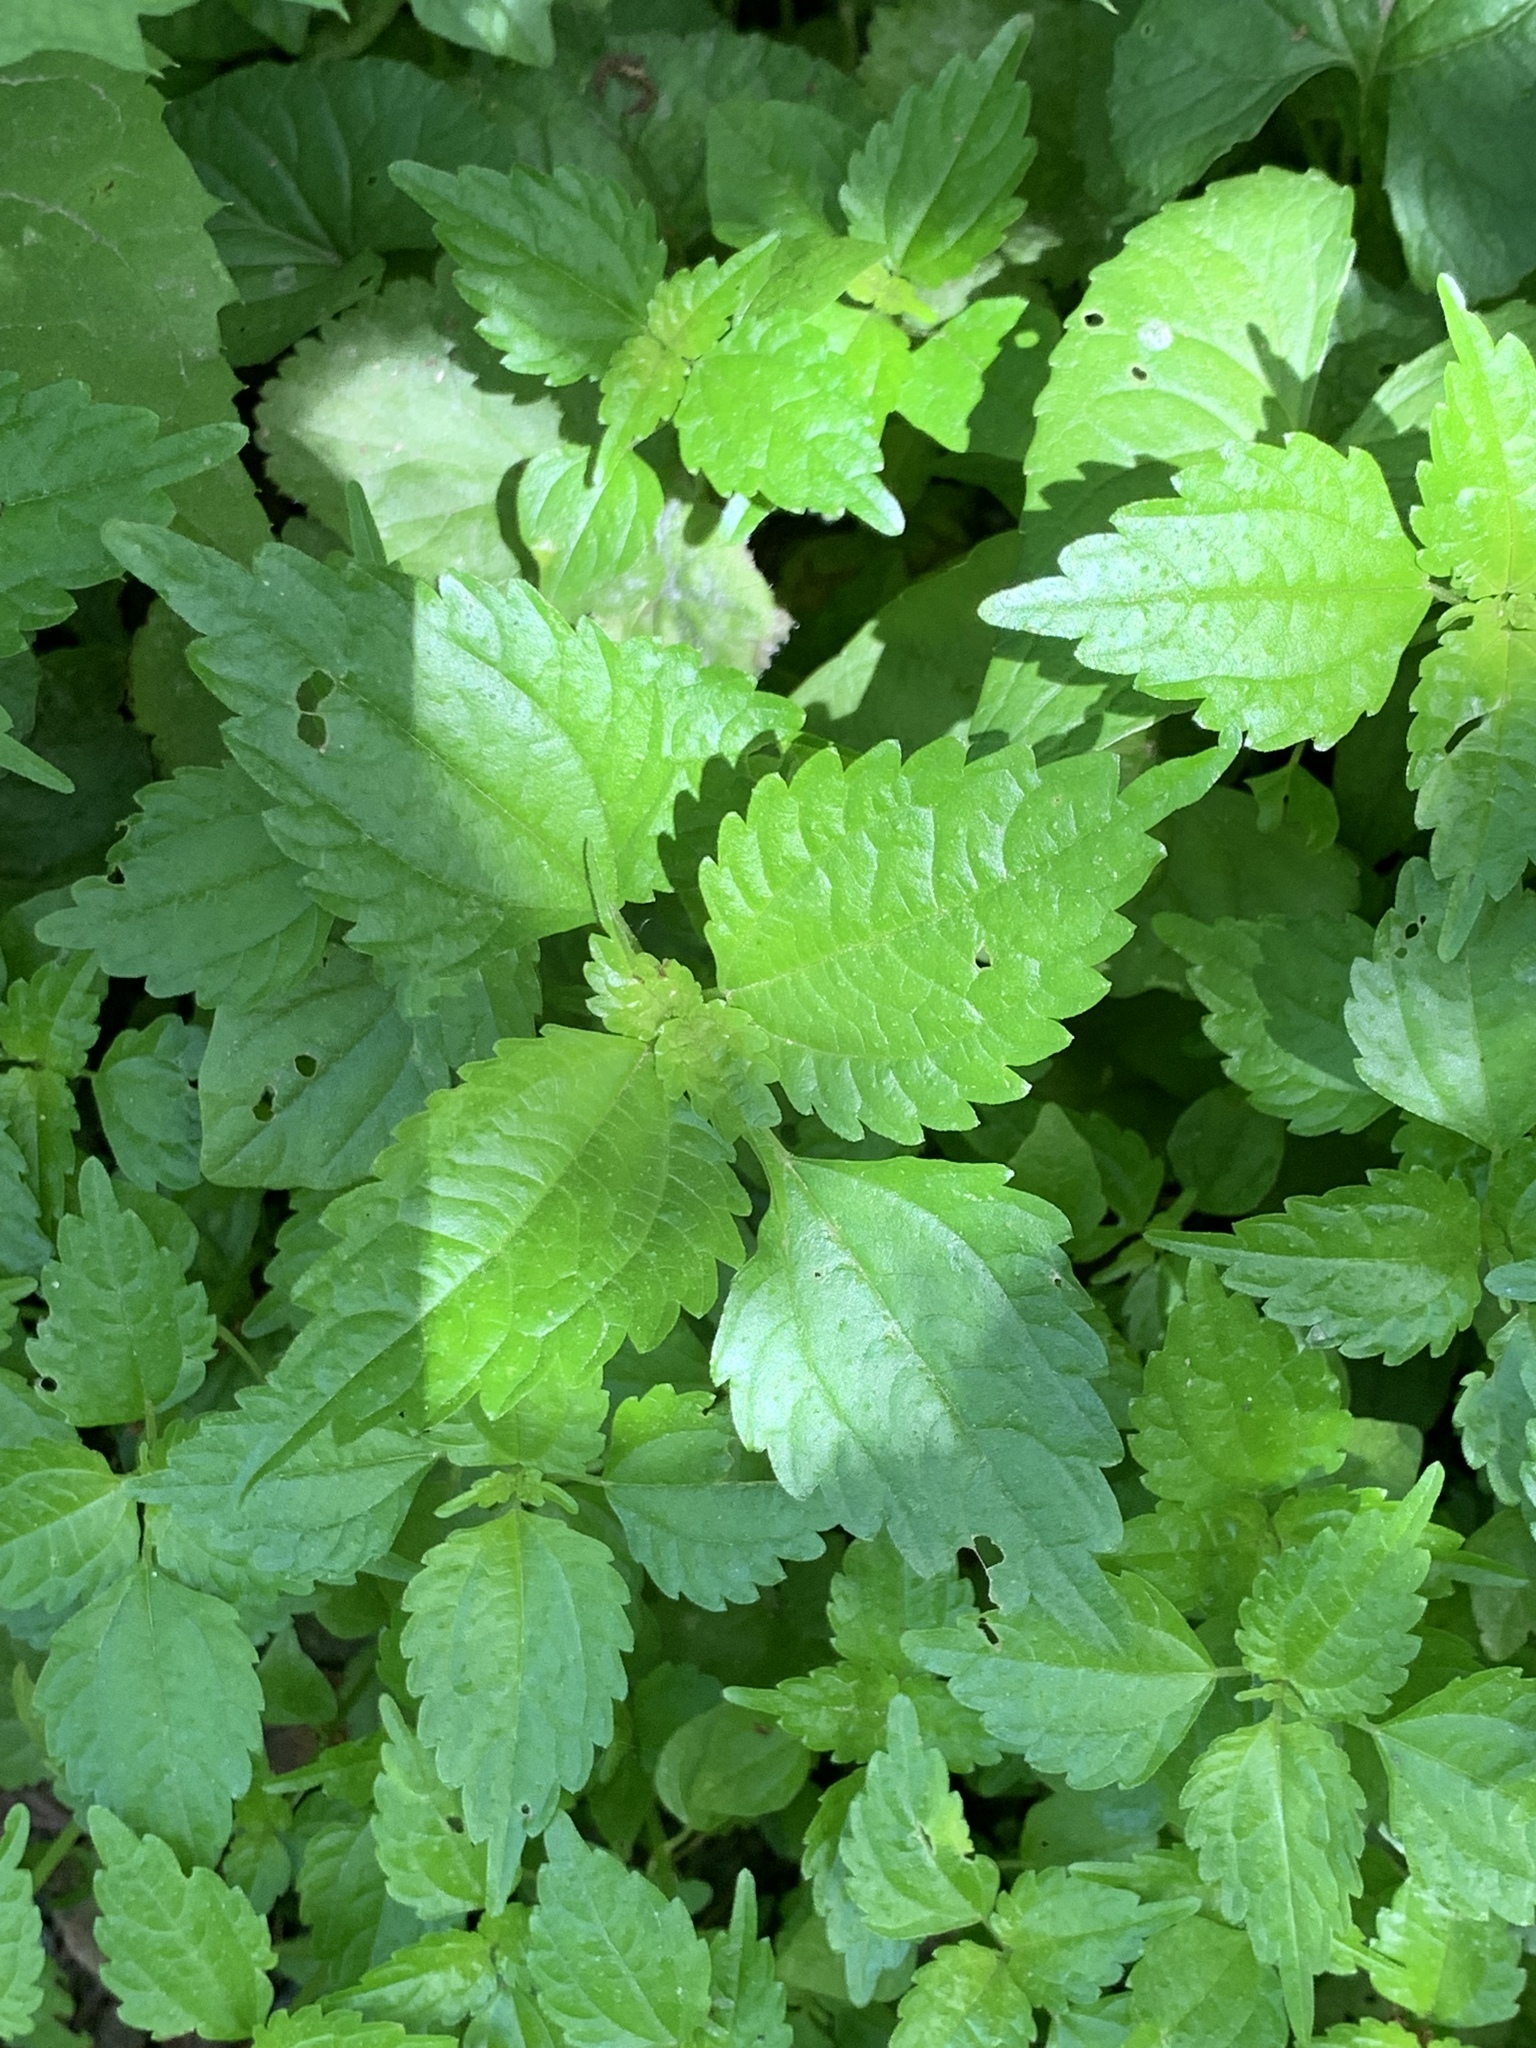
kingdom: Plantae
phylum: Tracheophyta
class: Magnoliopsida
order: Rosales
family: Urticaceae
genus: Pilea
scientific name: Pilea pumila
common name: Clearweed
